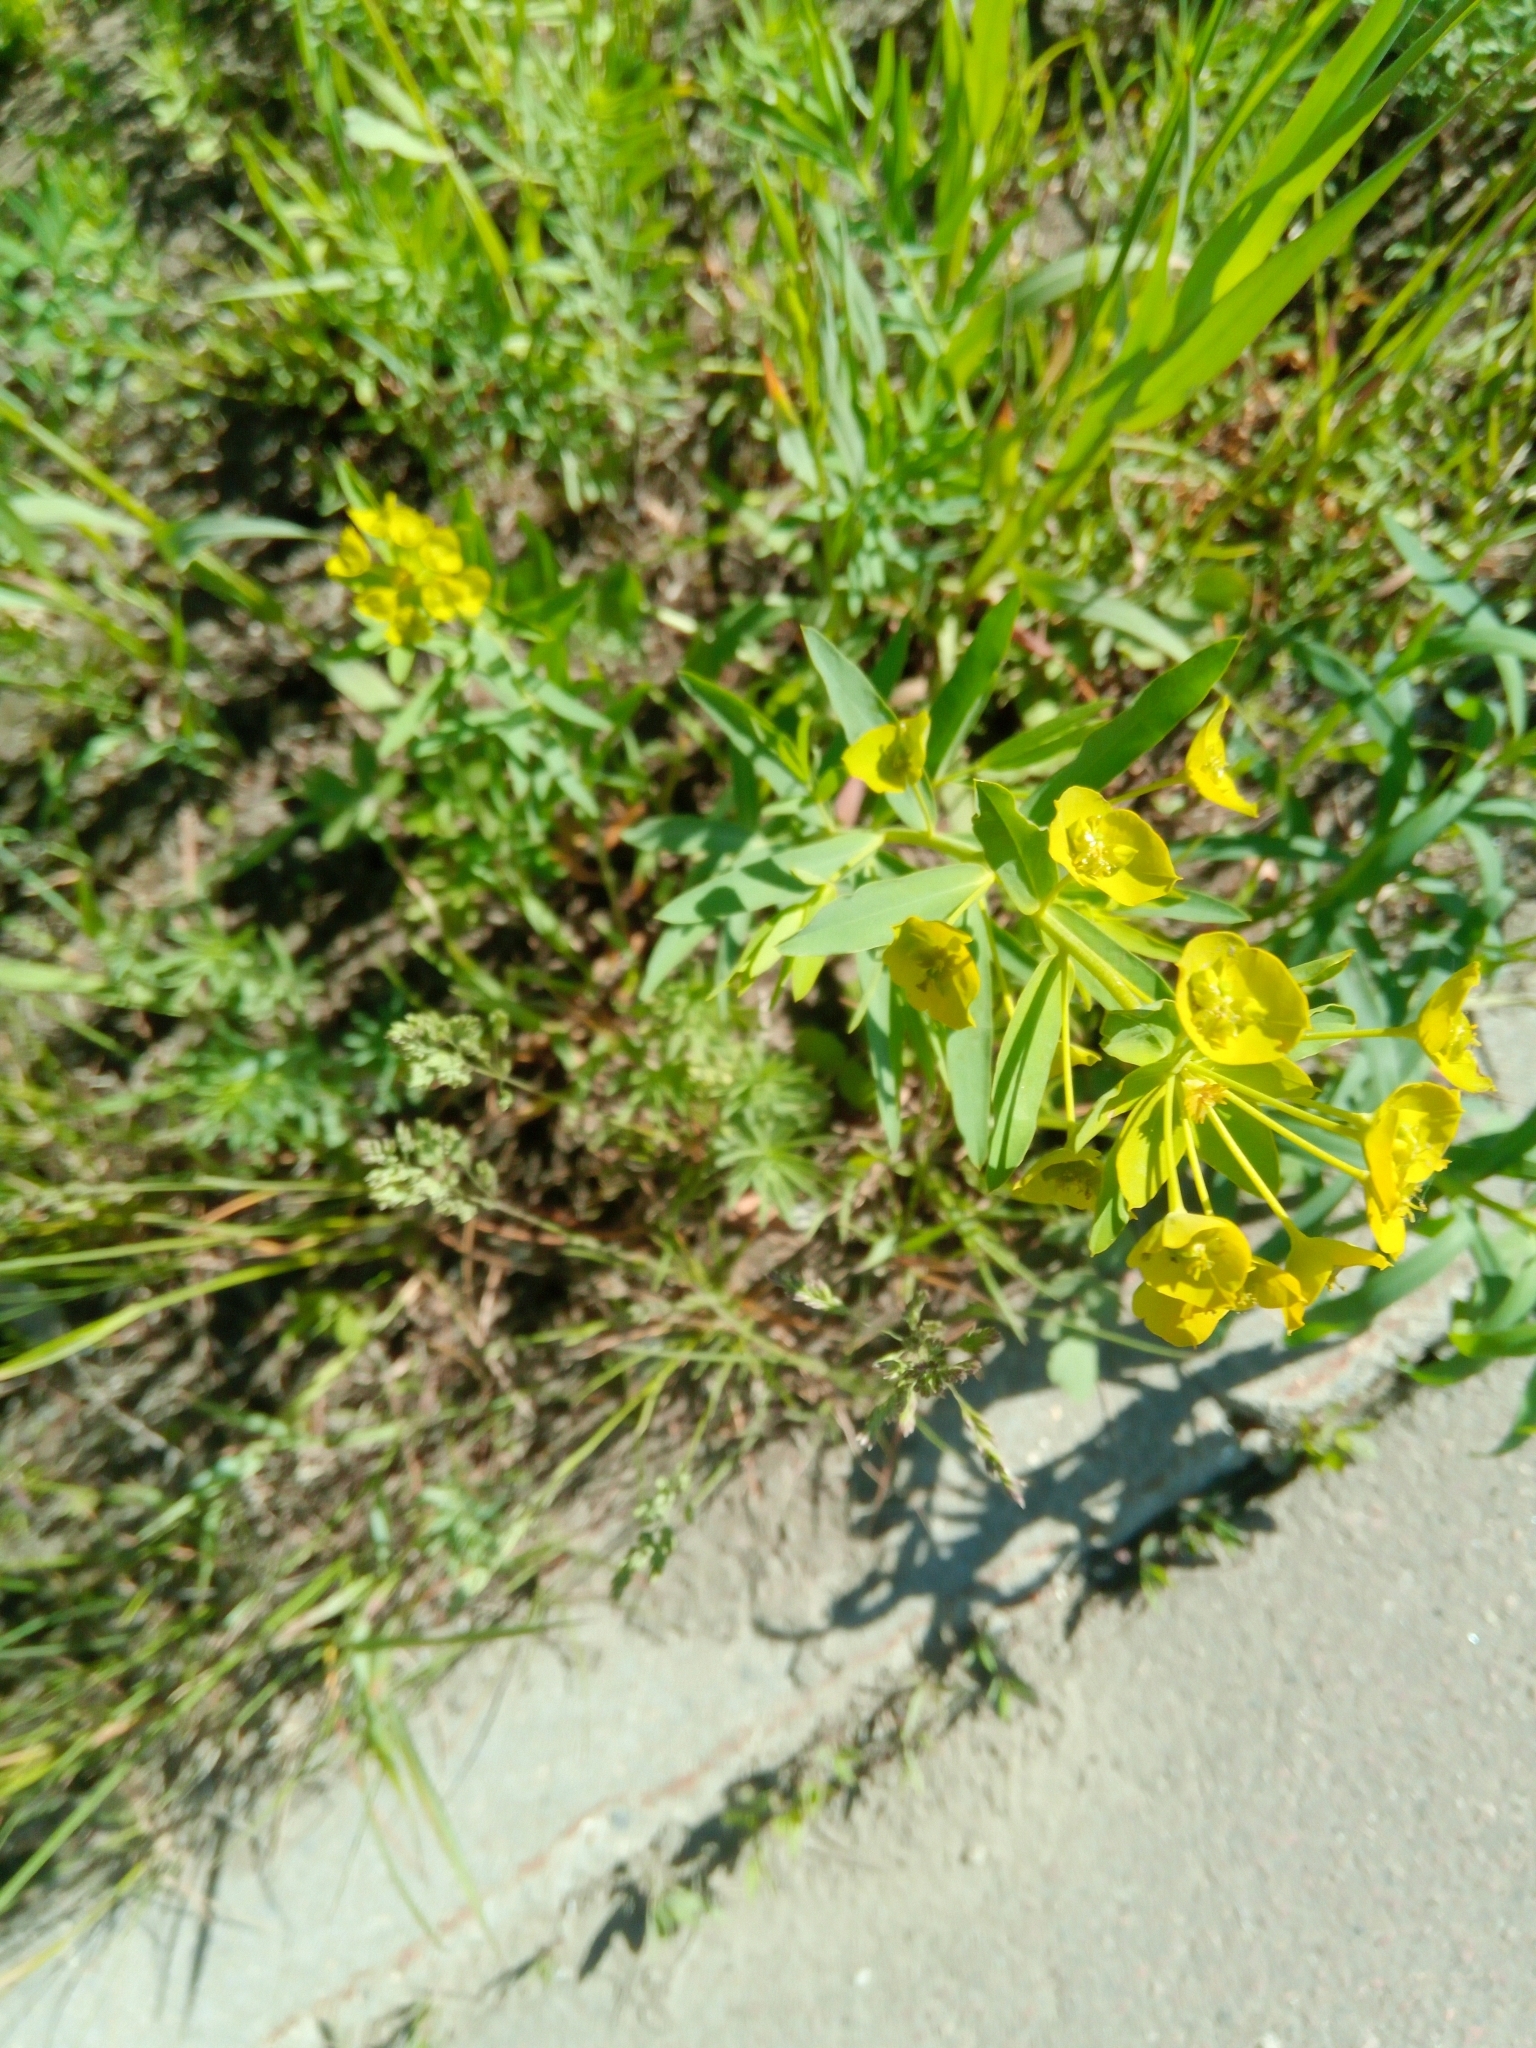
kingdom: Plantae
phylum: Tracheophyta
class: Magnoliopsida
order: Malpighiales
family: Euphorbiaceae
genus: Euphorbia
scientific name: Euphorbia virgata
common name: Leafy spurge
